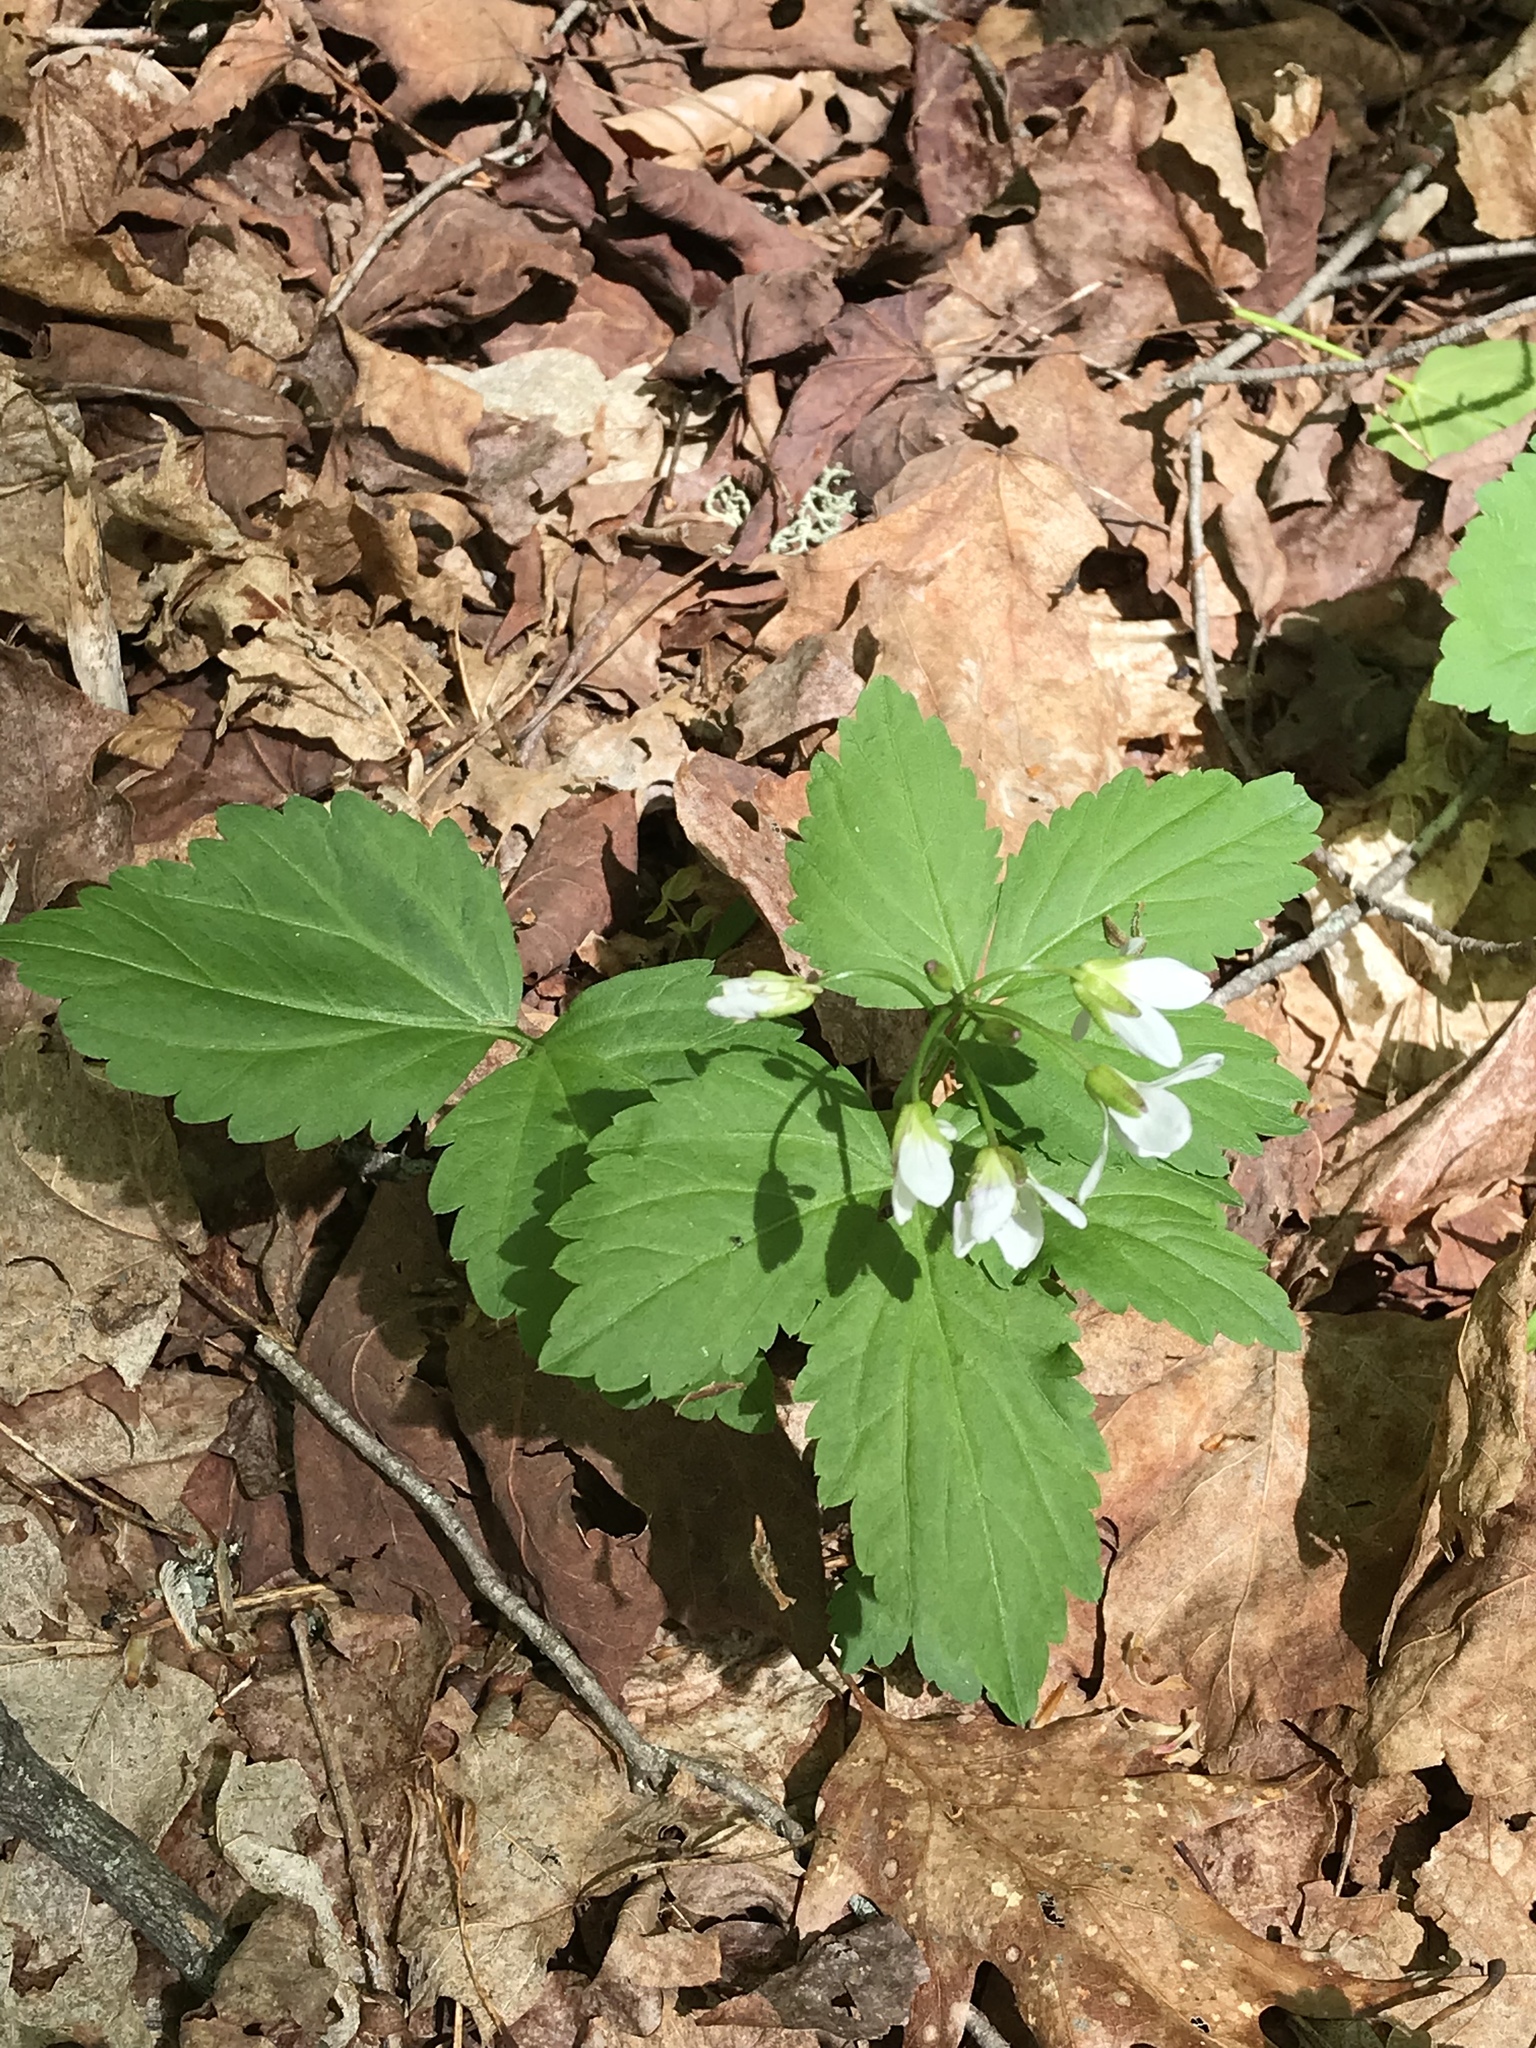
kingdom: Plantae
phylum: Tracheophyta
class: Magnoliopsida
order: Brassicales
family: Brassicaceae
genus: Cardamine
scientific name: Cardamine diphylla
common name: Broad-leaved toothwort
